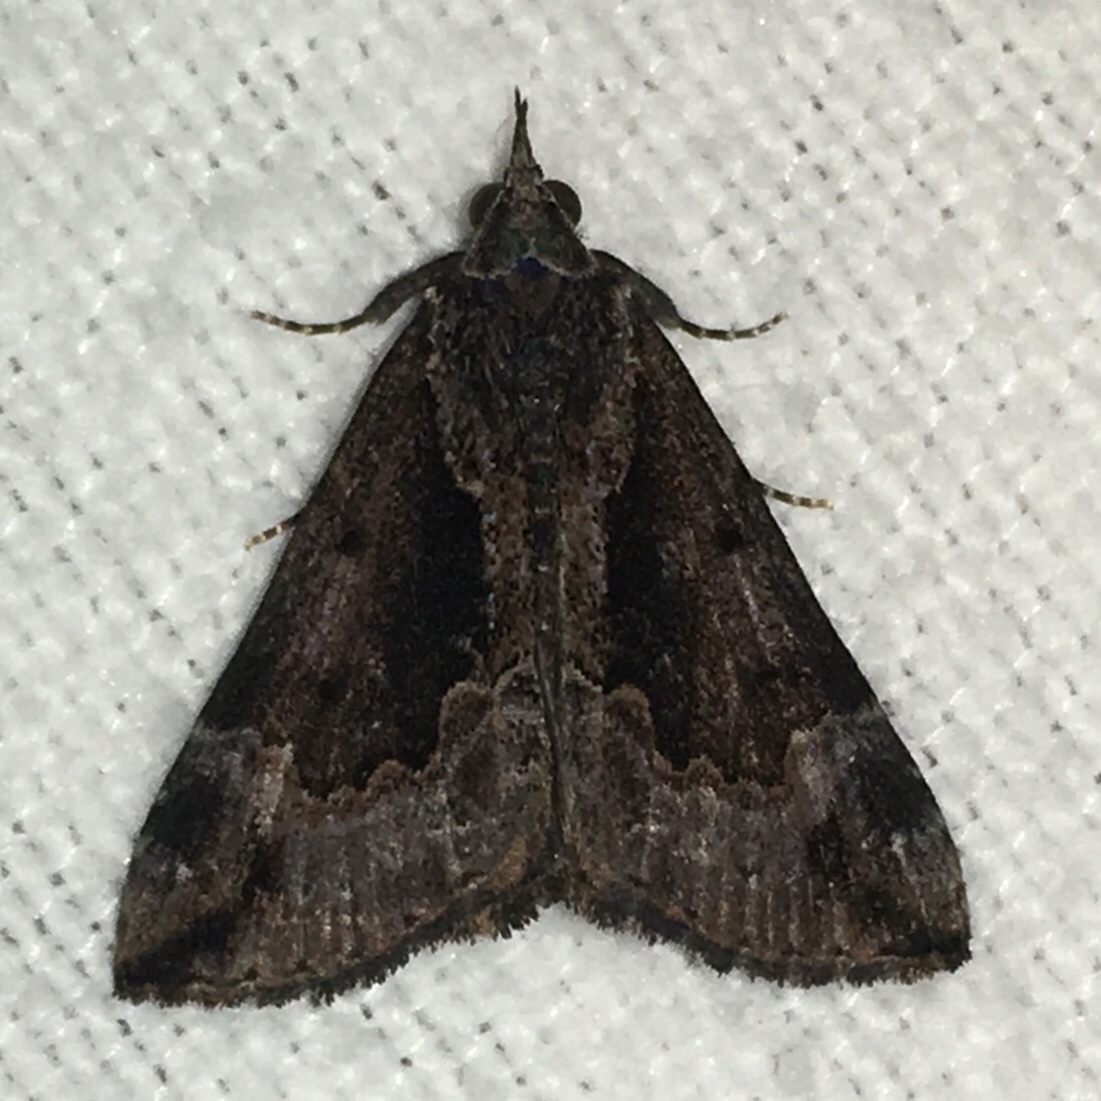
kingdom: Animalia
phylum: Arthropoda
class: Insecta
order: Lepidoptera
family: Erebidae
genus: Hypena
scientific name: Hypena baltimoralis
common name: Baltimore snout
